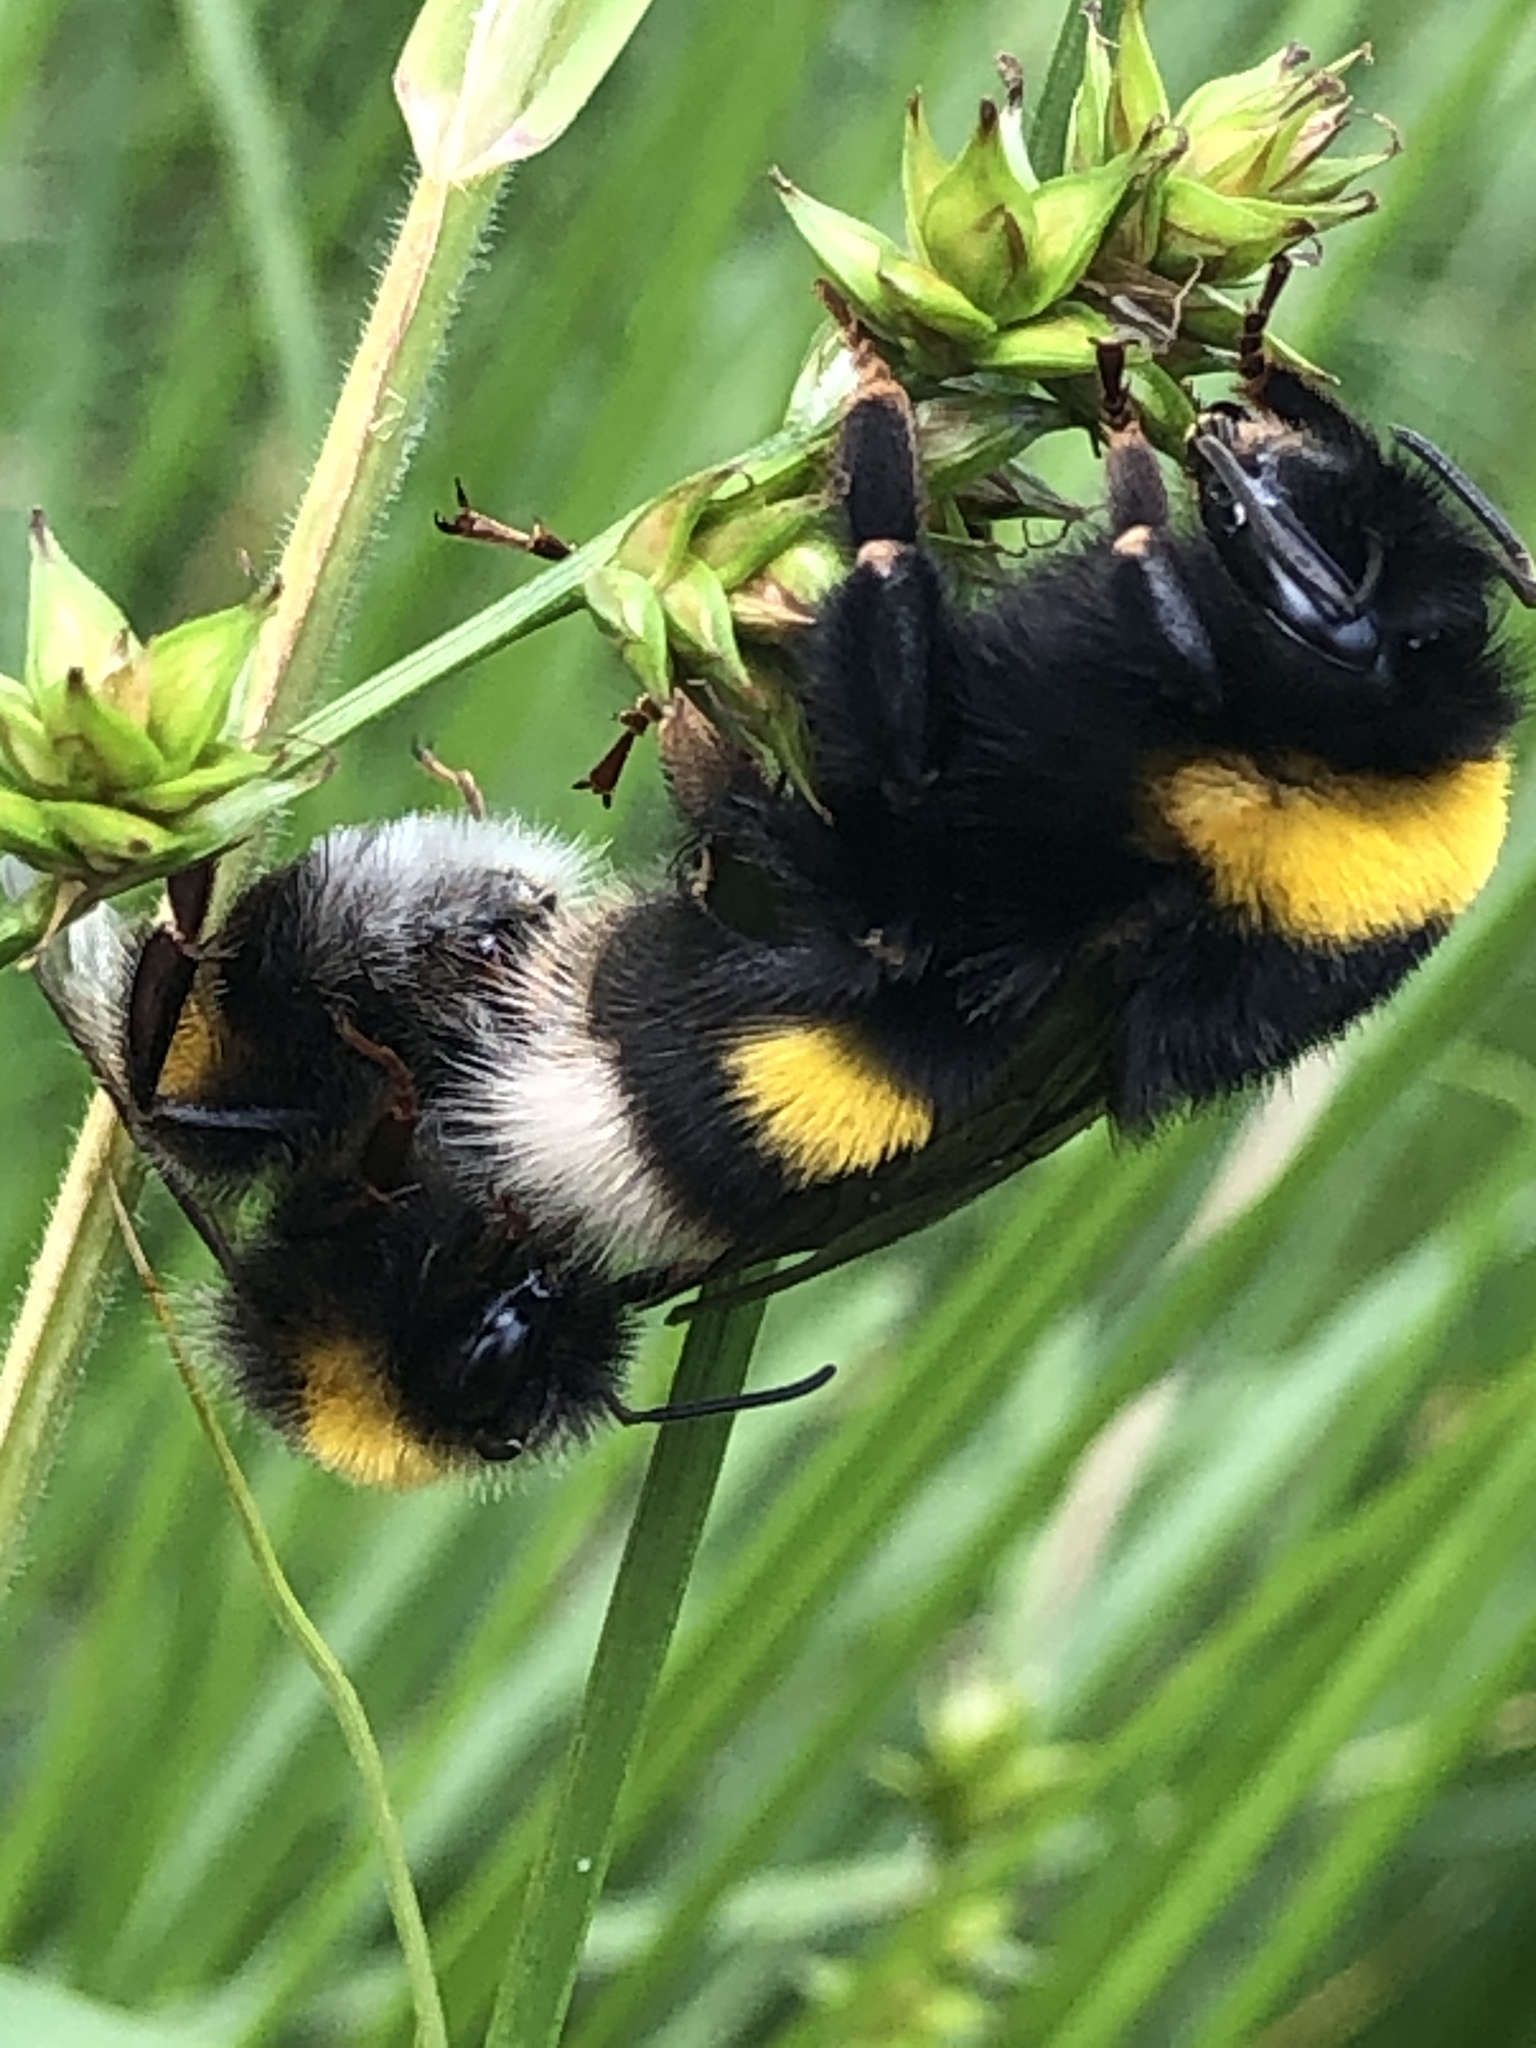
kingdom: Animalia
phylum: Arthropoda
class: Insecta
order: Hymenoptera
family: Apidae
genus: Bombus
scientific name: Bombus terrestris
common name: Buff-tailed bumblebee
